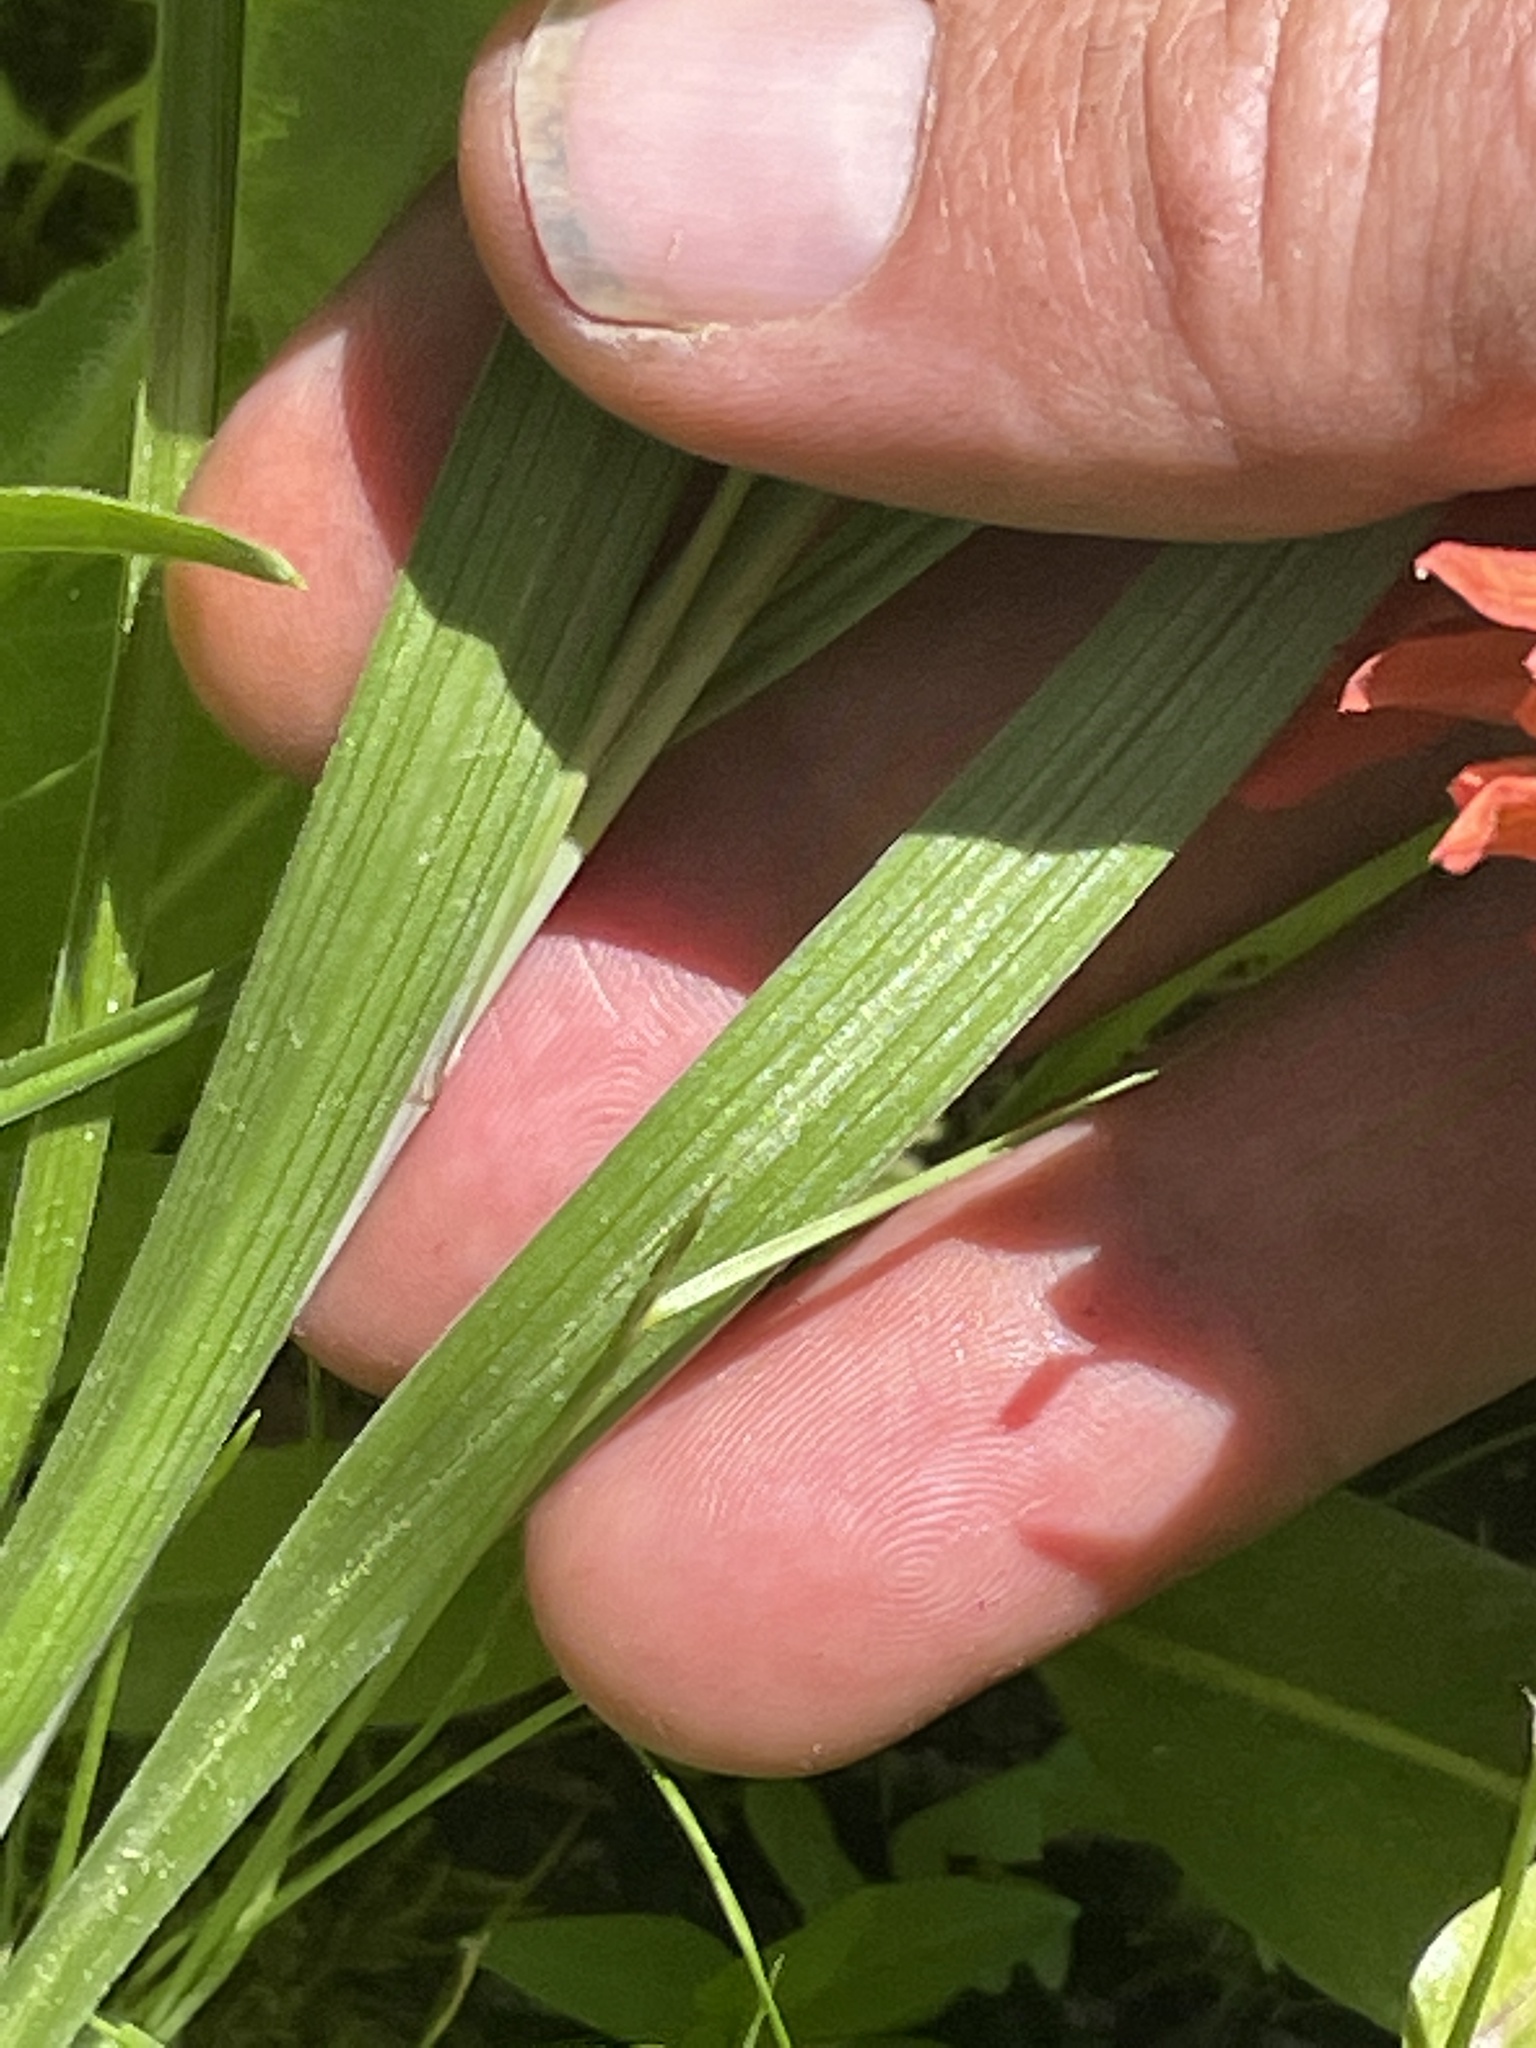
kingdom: Plantae
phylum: Tracheophyta
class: Liliopsida
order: Liliales
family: Melanthiaceae
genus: Anticlea
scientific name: Anticlea elegans
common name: Mountain death camas
